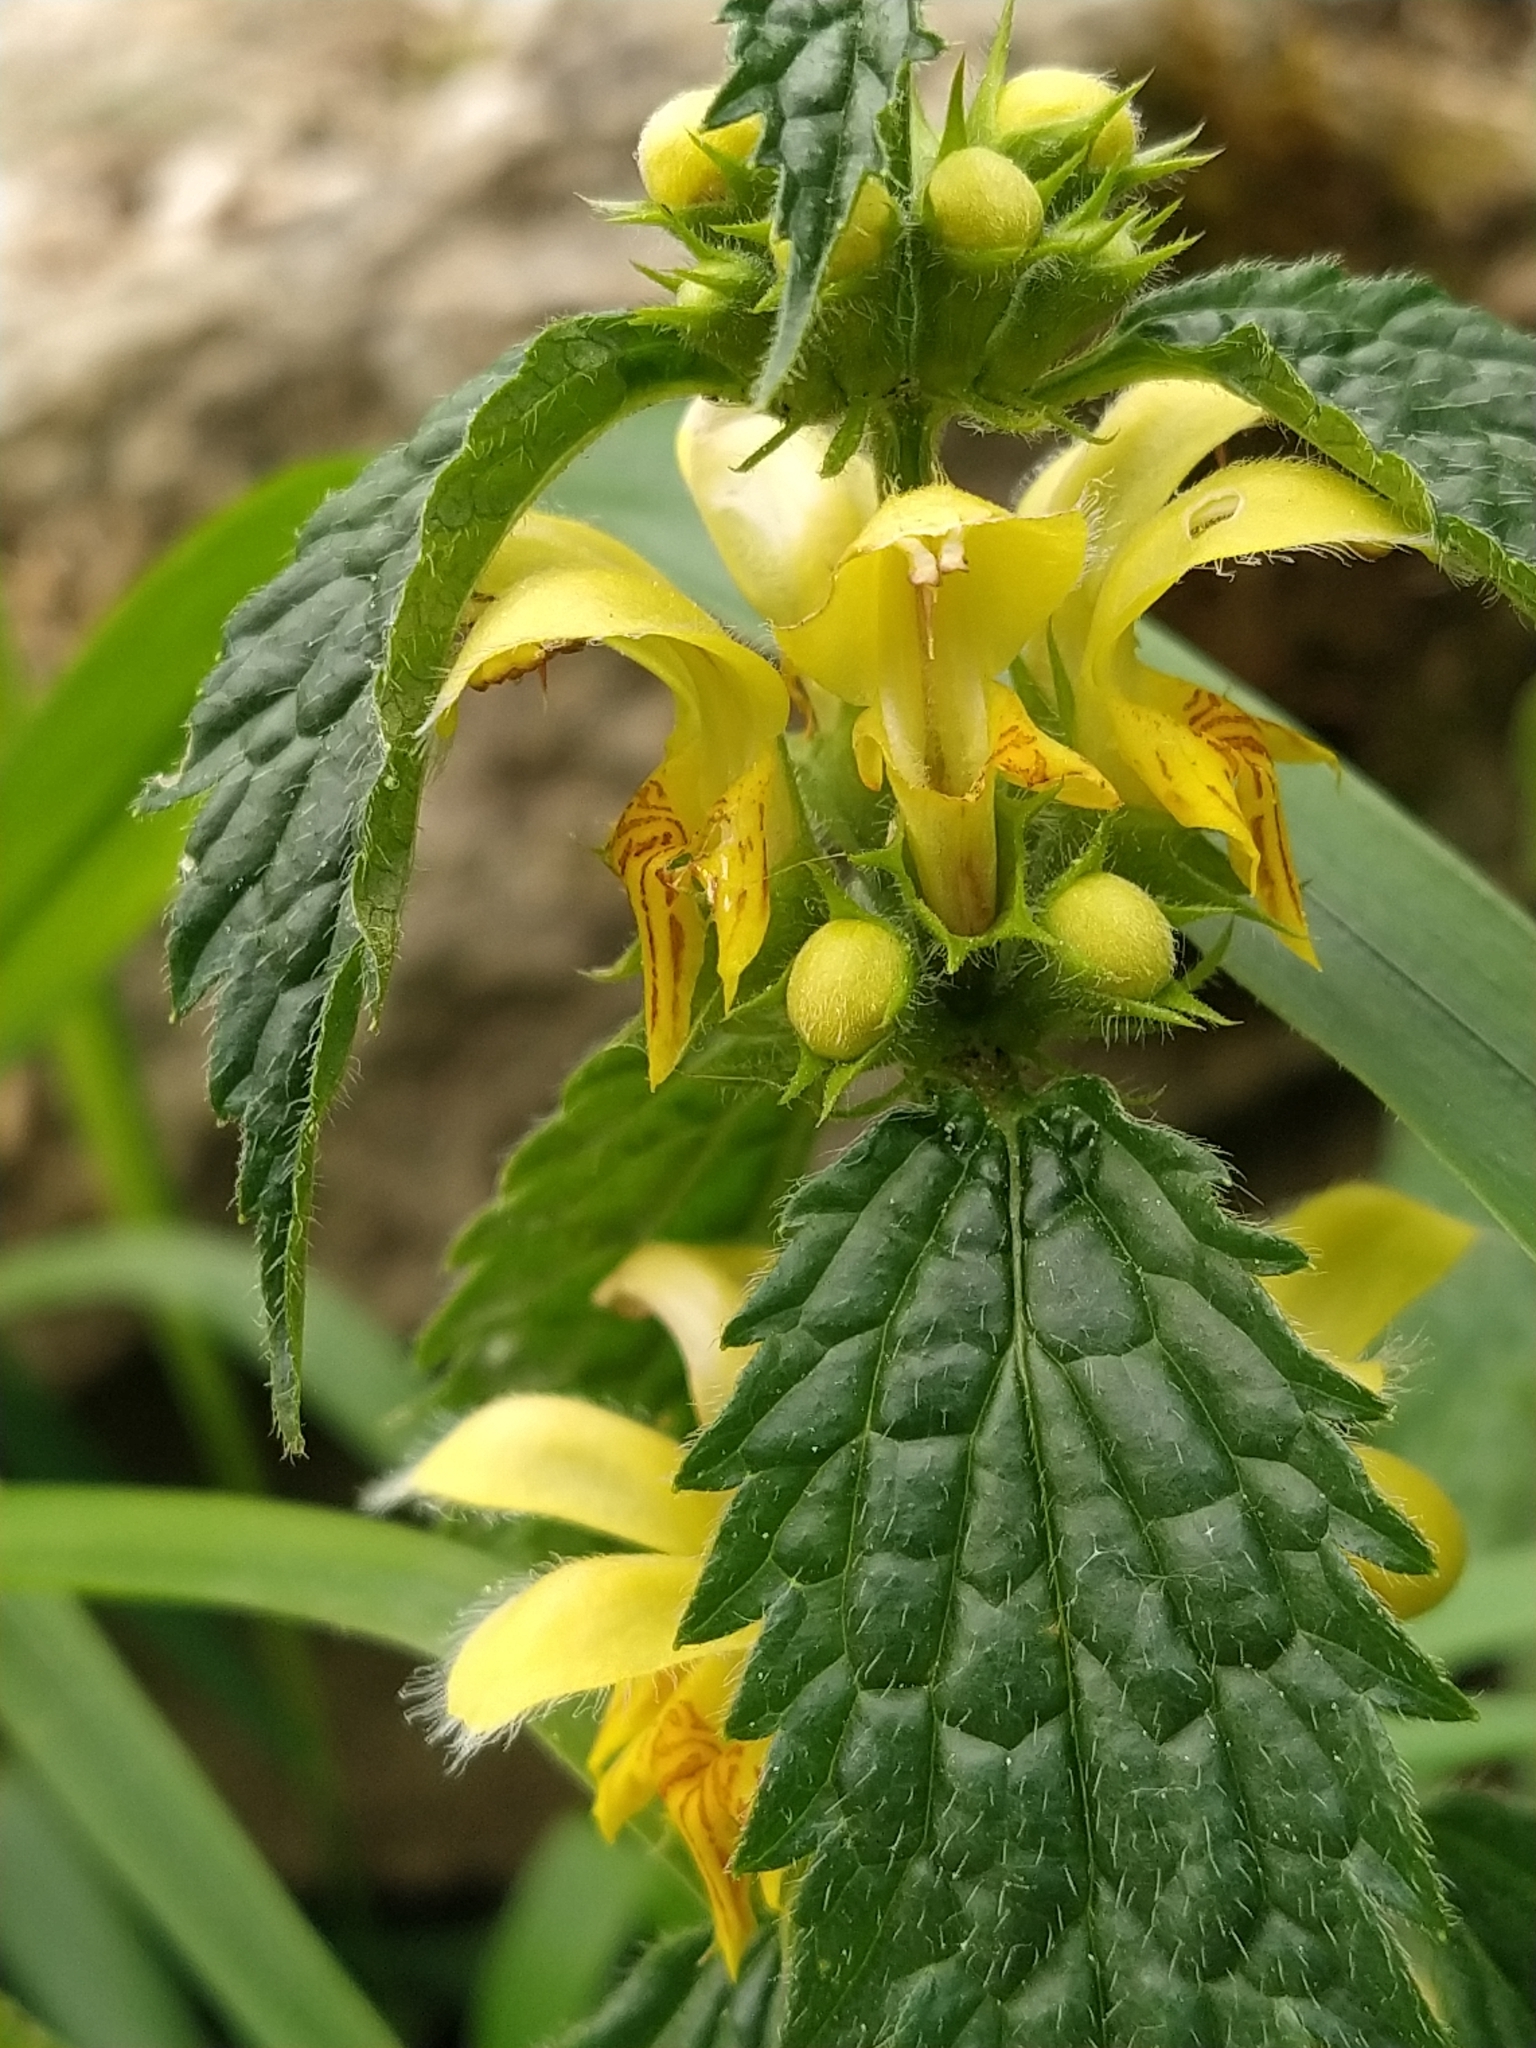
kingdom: Plantae
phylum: Tracheophyta
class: Magnoliopsida
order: Lamiales
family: Lamiaceae
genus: Lamium
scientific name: Lamium galeobdolon
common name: Yellow archangel
